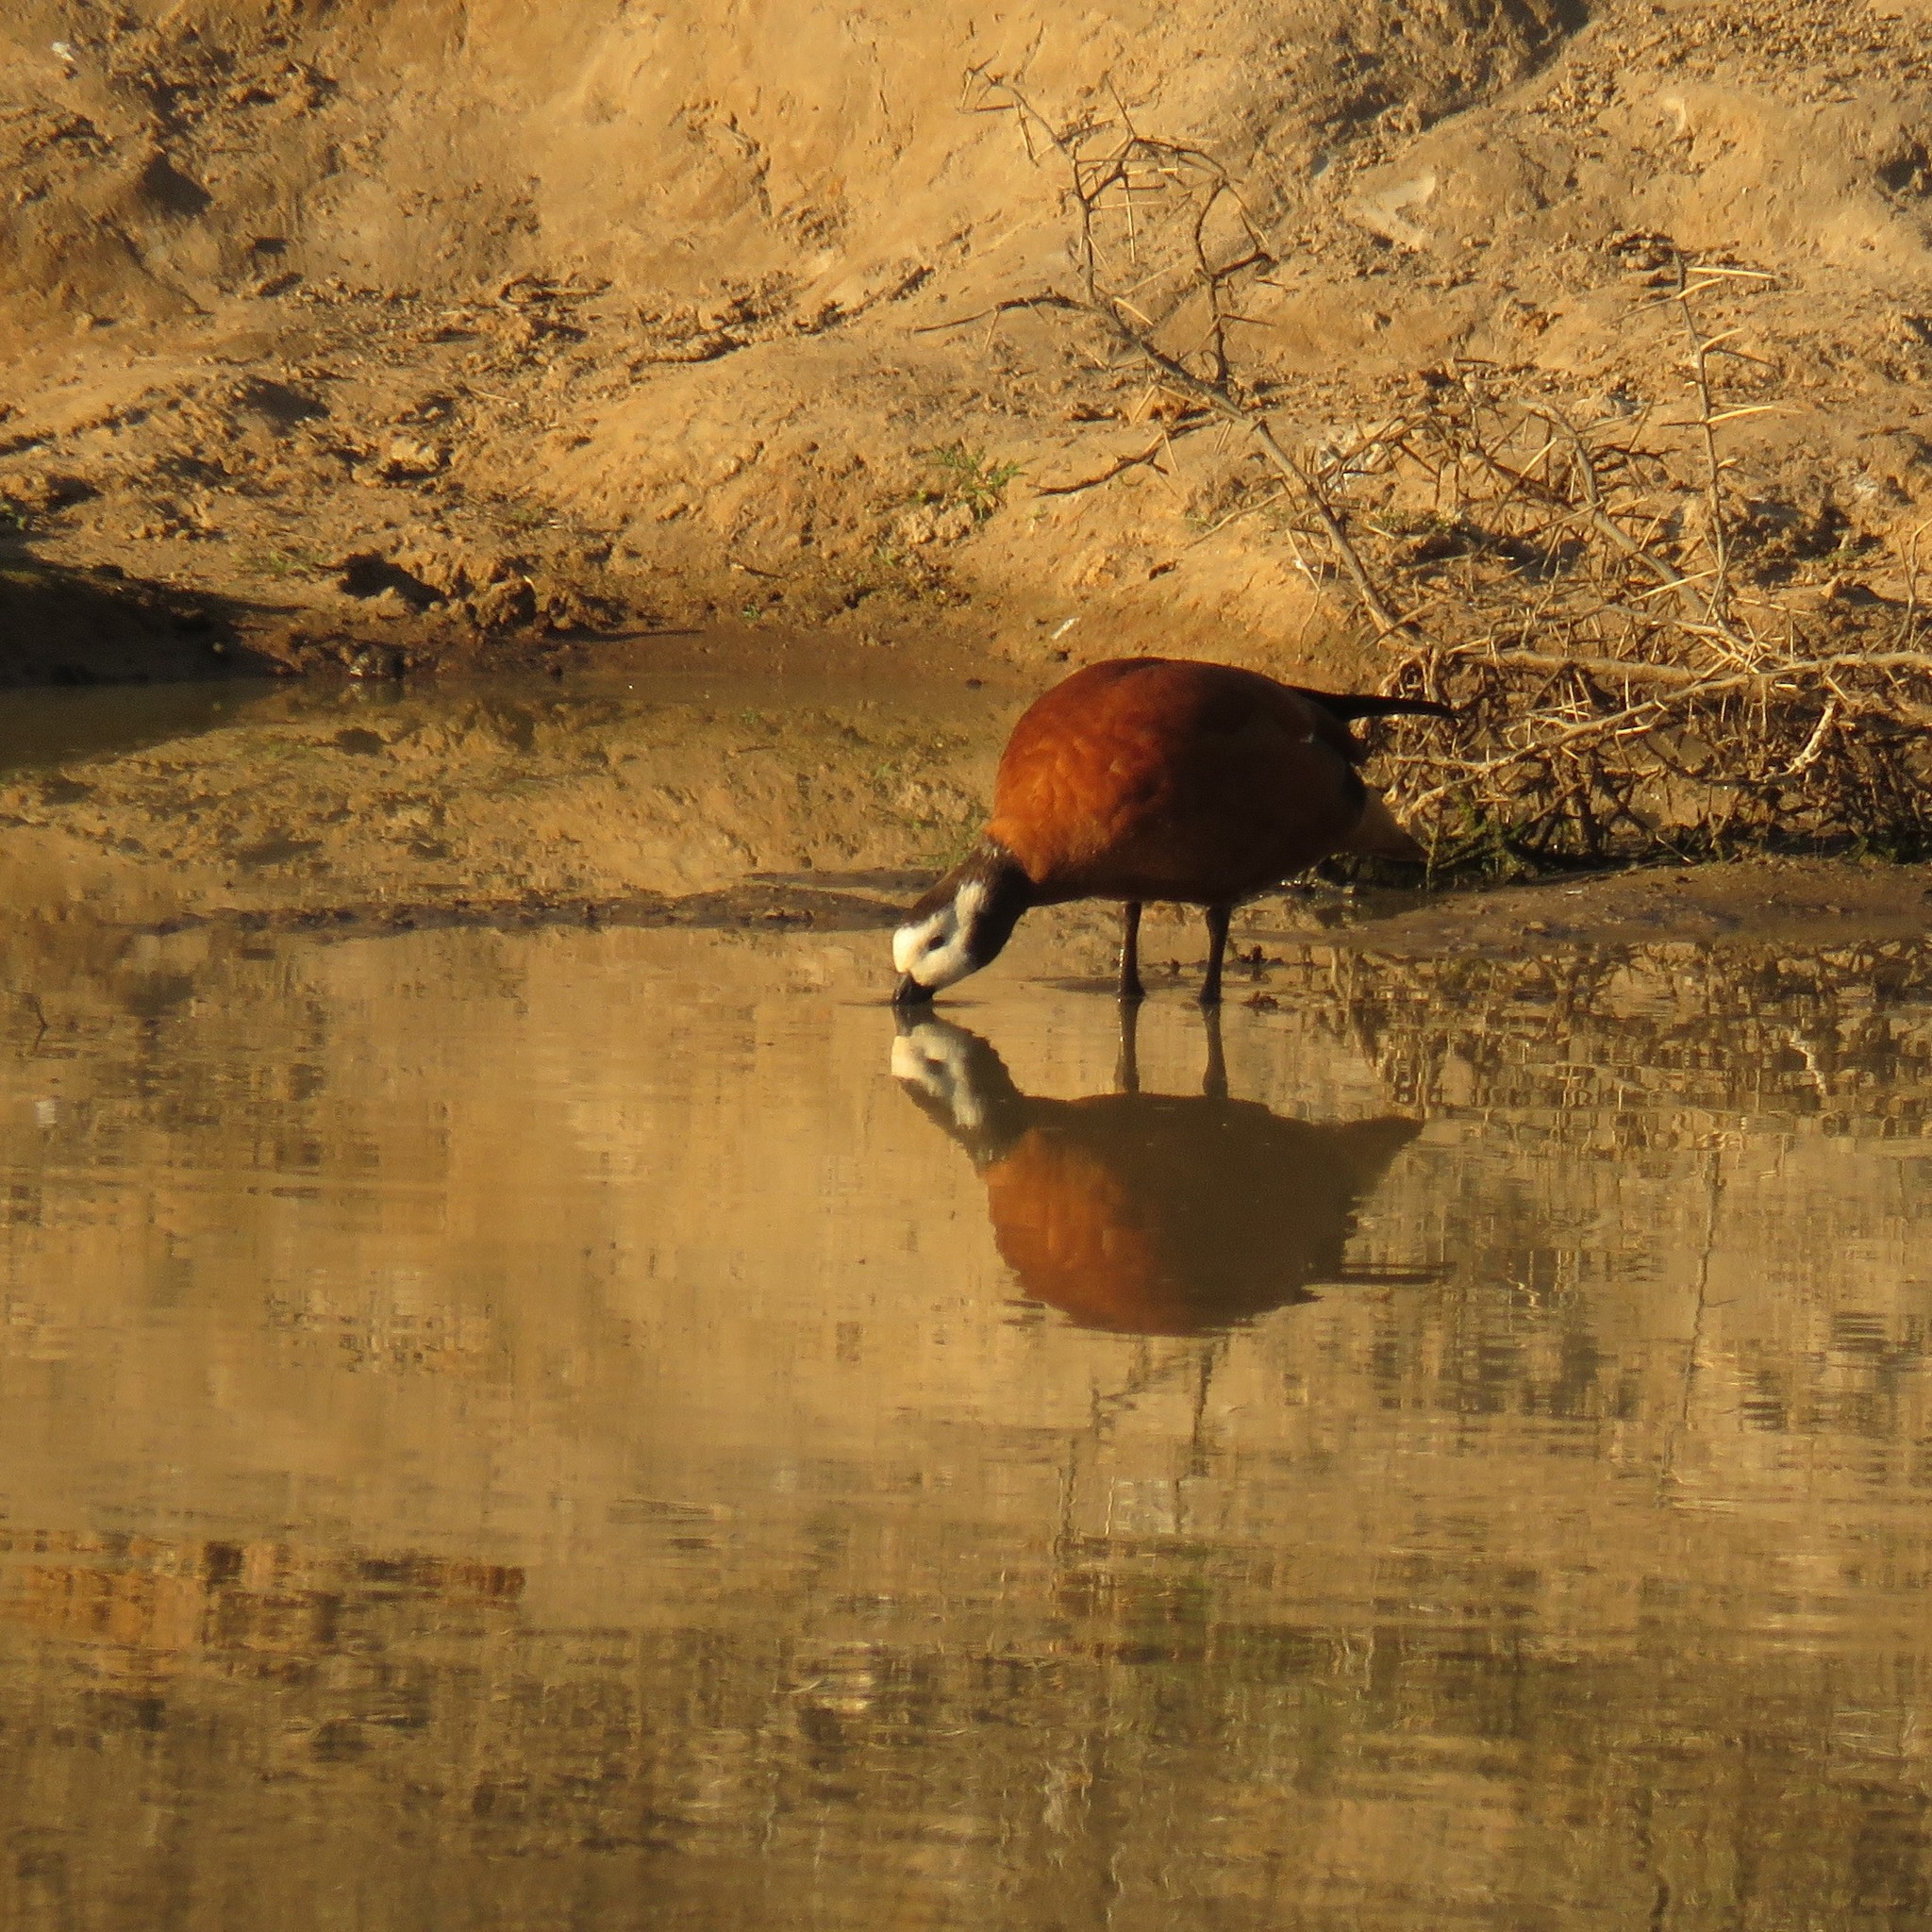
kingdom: Animalia
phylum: Chordata
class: Aves
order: Anseriformes
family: Anatidae
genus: Tadorna
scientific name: Tadorna cana
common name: South african shelduck
